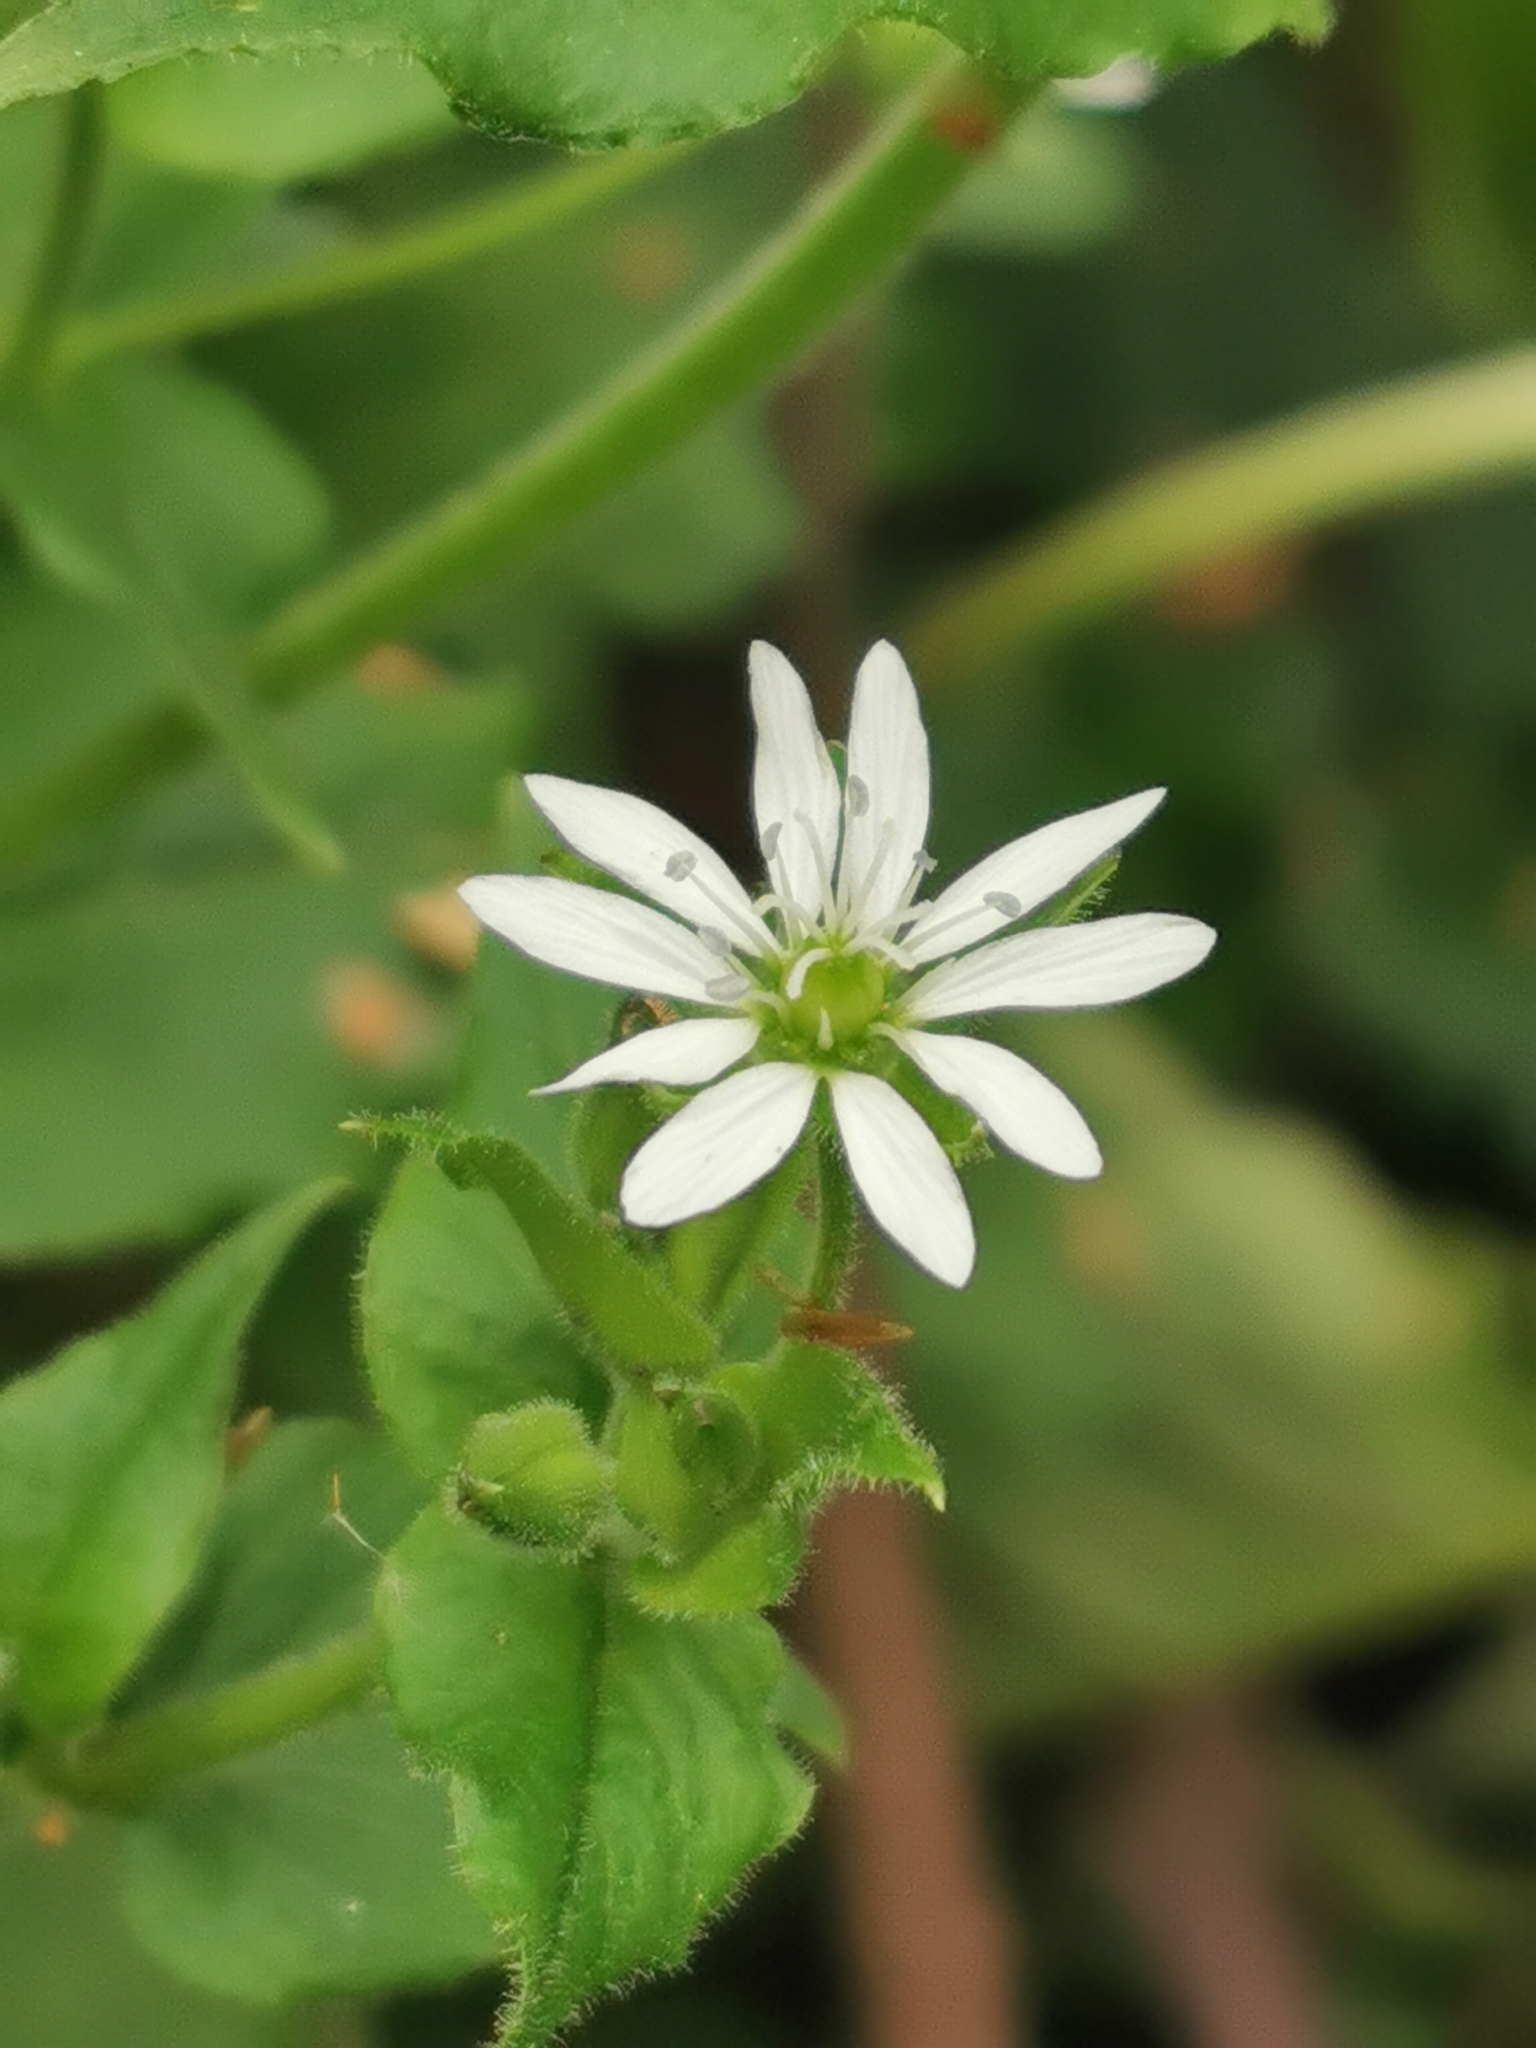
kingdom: Plantae
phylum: Tracheophyta
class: Magnoliopsida
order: Caryophyllales
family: Caryophyllaceae
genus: Stellaria
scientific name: Stellaria aquatica
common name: Water chickweed
